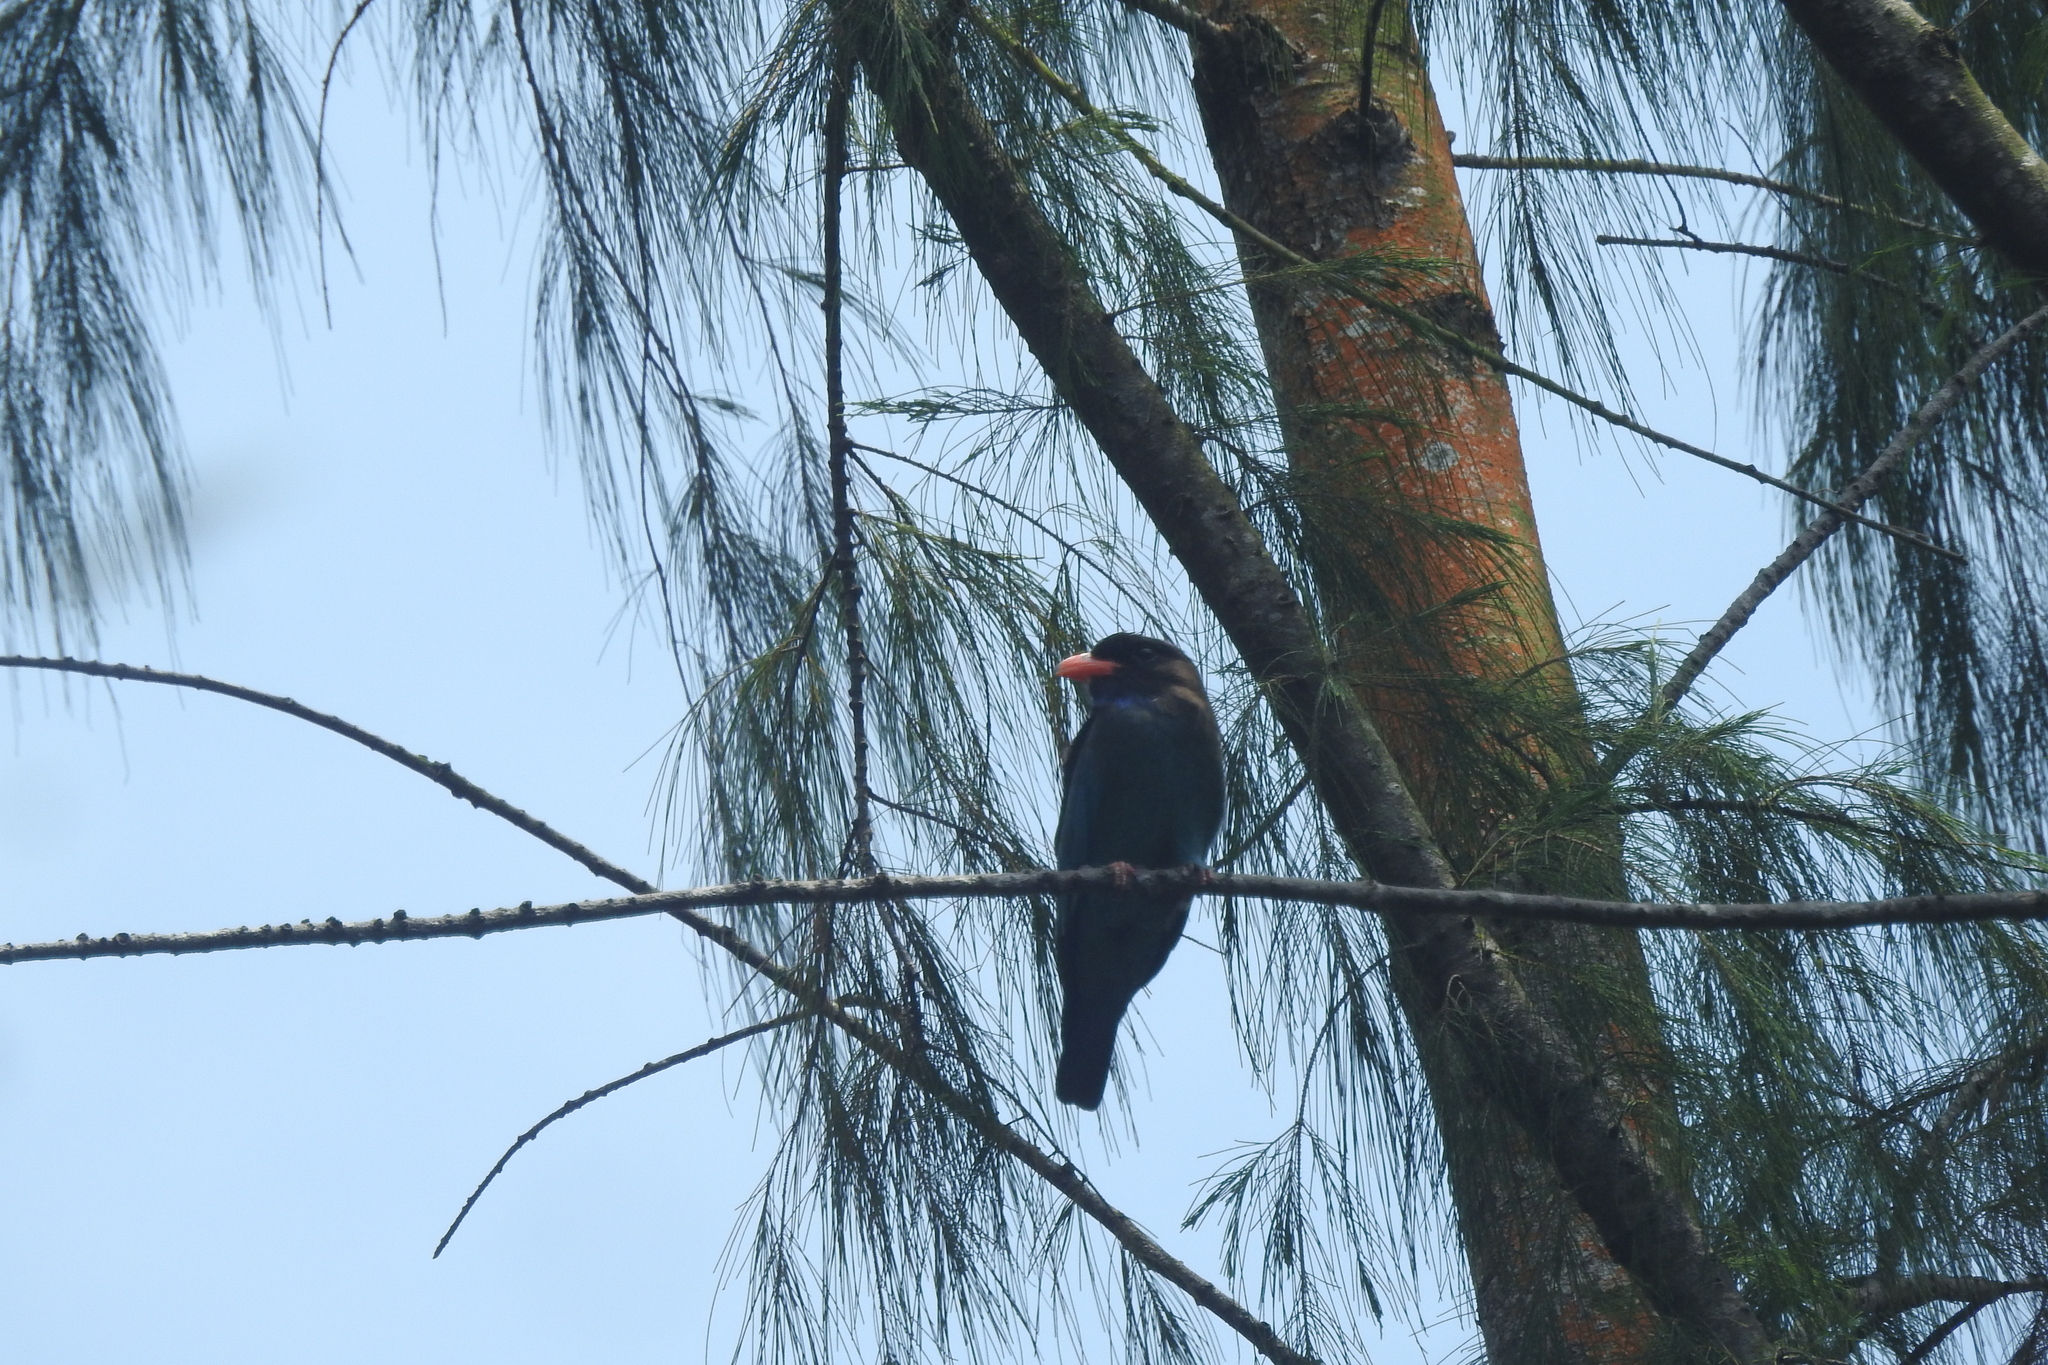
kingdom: Animalia
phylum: Chordata
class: Aves
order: Coraciiformes
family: Coraciidae
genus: Eurystomus
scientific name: Eurystomus orientalis
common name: Oriental dollarbird
